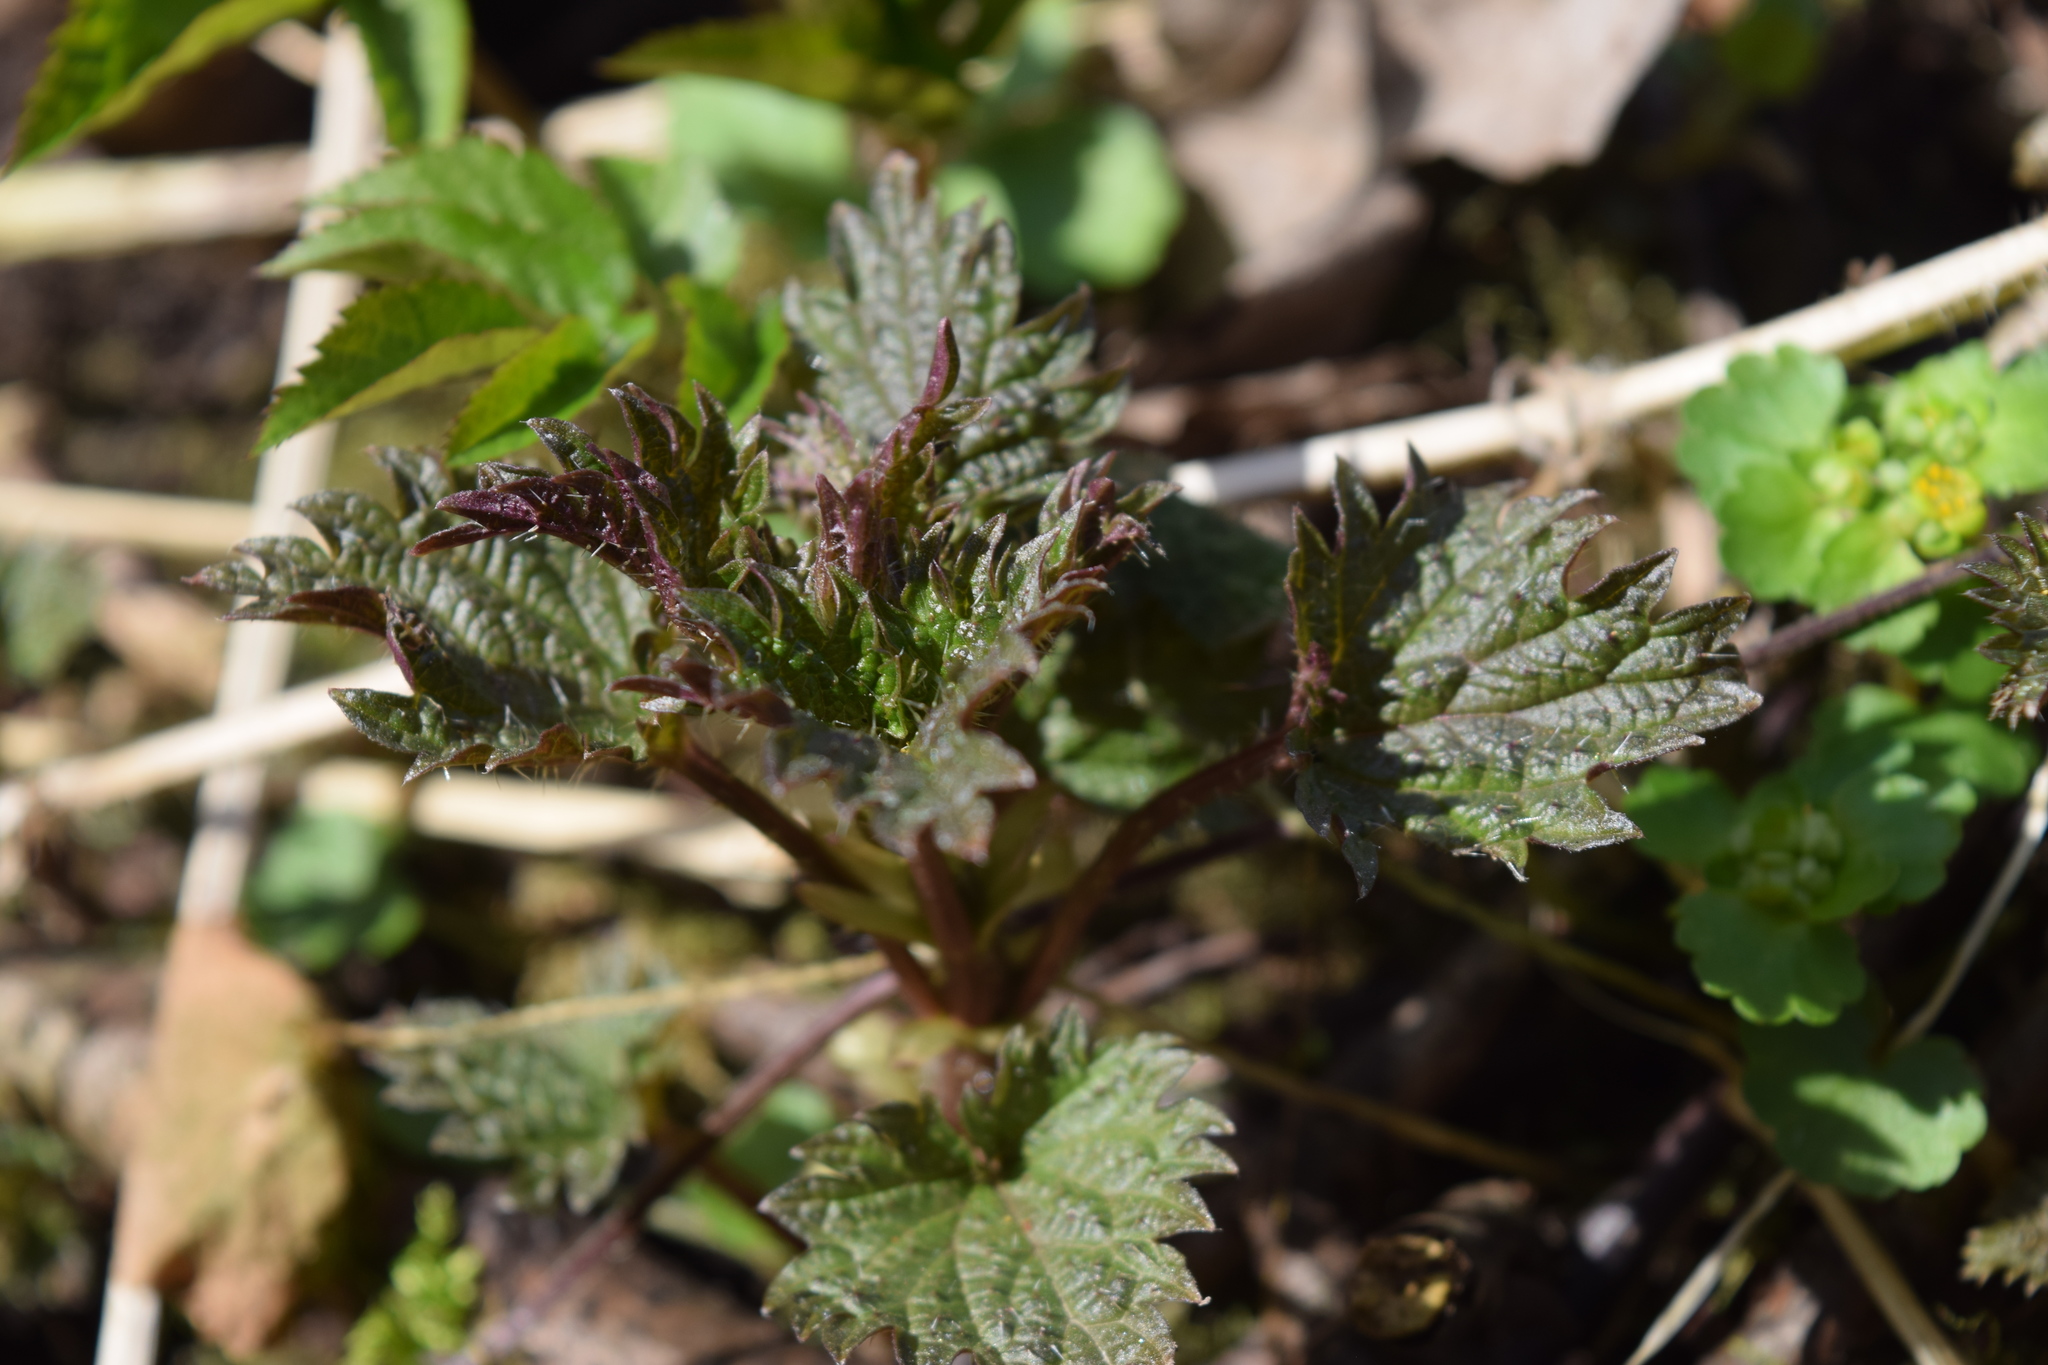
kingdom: Plantae
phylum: Tracheophyta
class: Magnoliopsida
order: Rosales
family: Urticaceae
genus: Urtica
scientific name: Urtica dioica
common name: Common nettle
